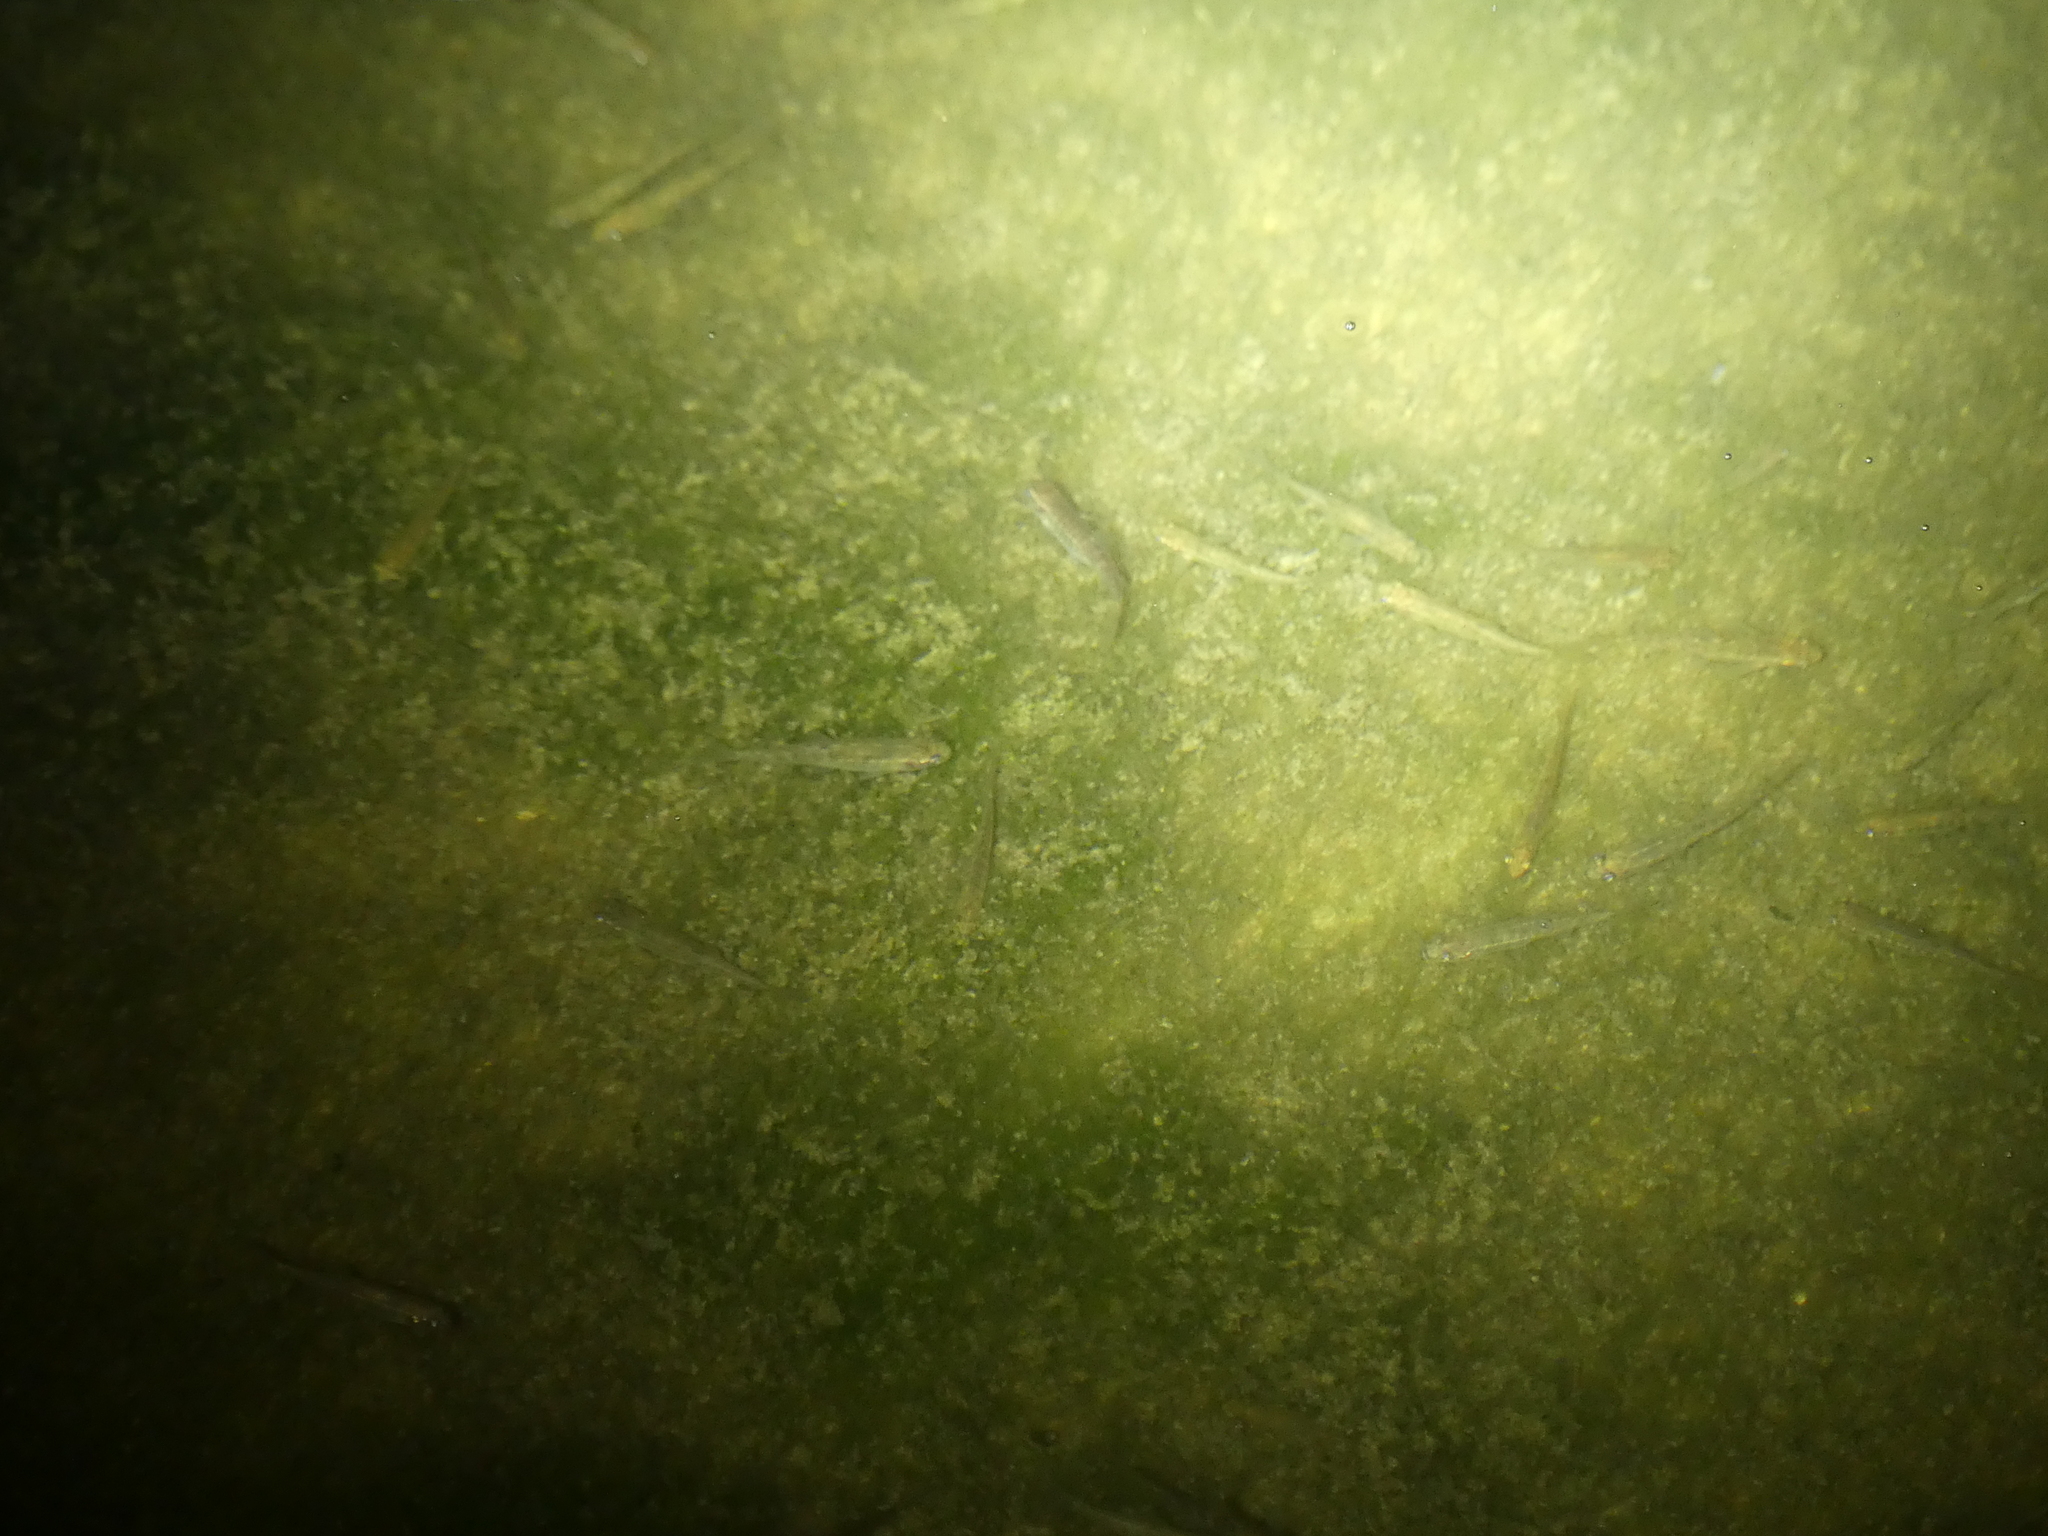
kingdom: Animalia
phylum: Chordata
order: Cypriniformes
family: Cyprinidae
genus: Phoxinus
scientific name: Phoxinus septimaniae
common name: Languedoc minnow
